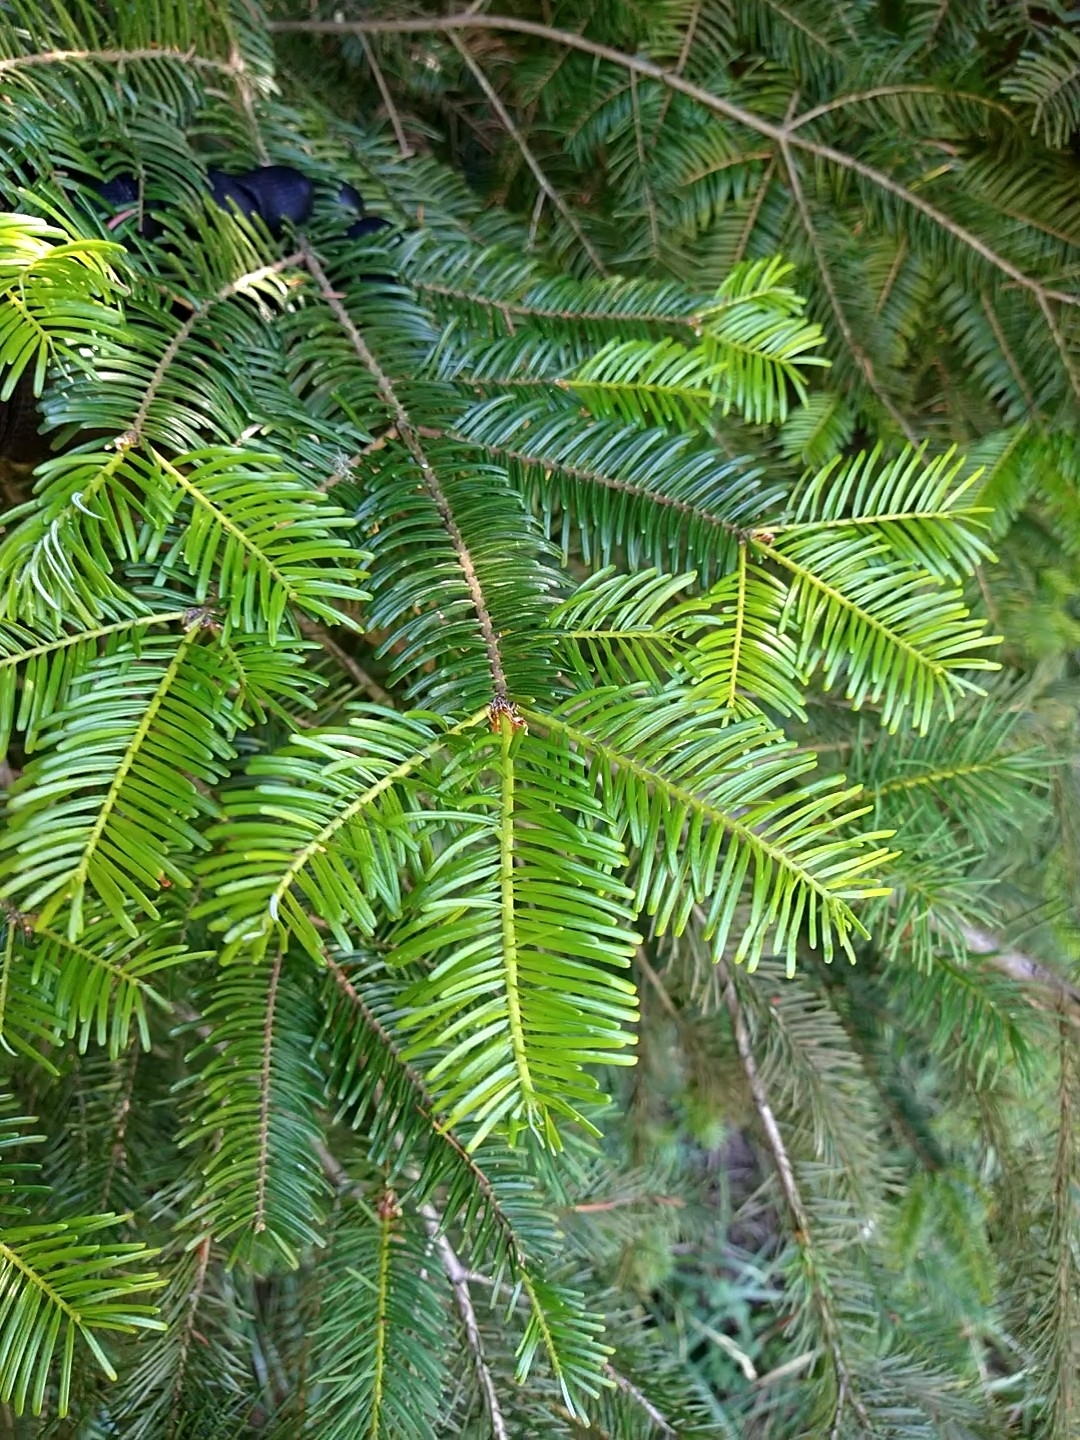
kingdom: Plantae
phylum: Tracheophyta
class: Pinopsida
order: Pinales
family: Pinaceae
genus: Abies
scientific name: Abies grandis
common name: Giant fir
